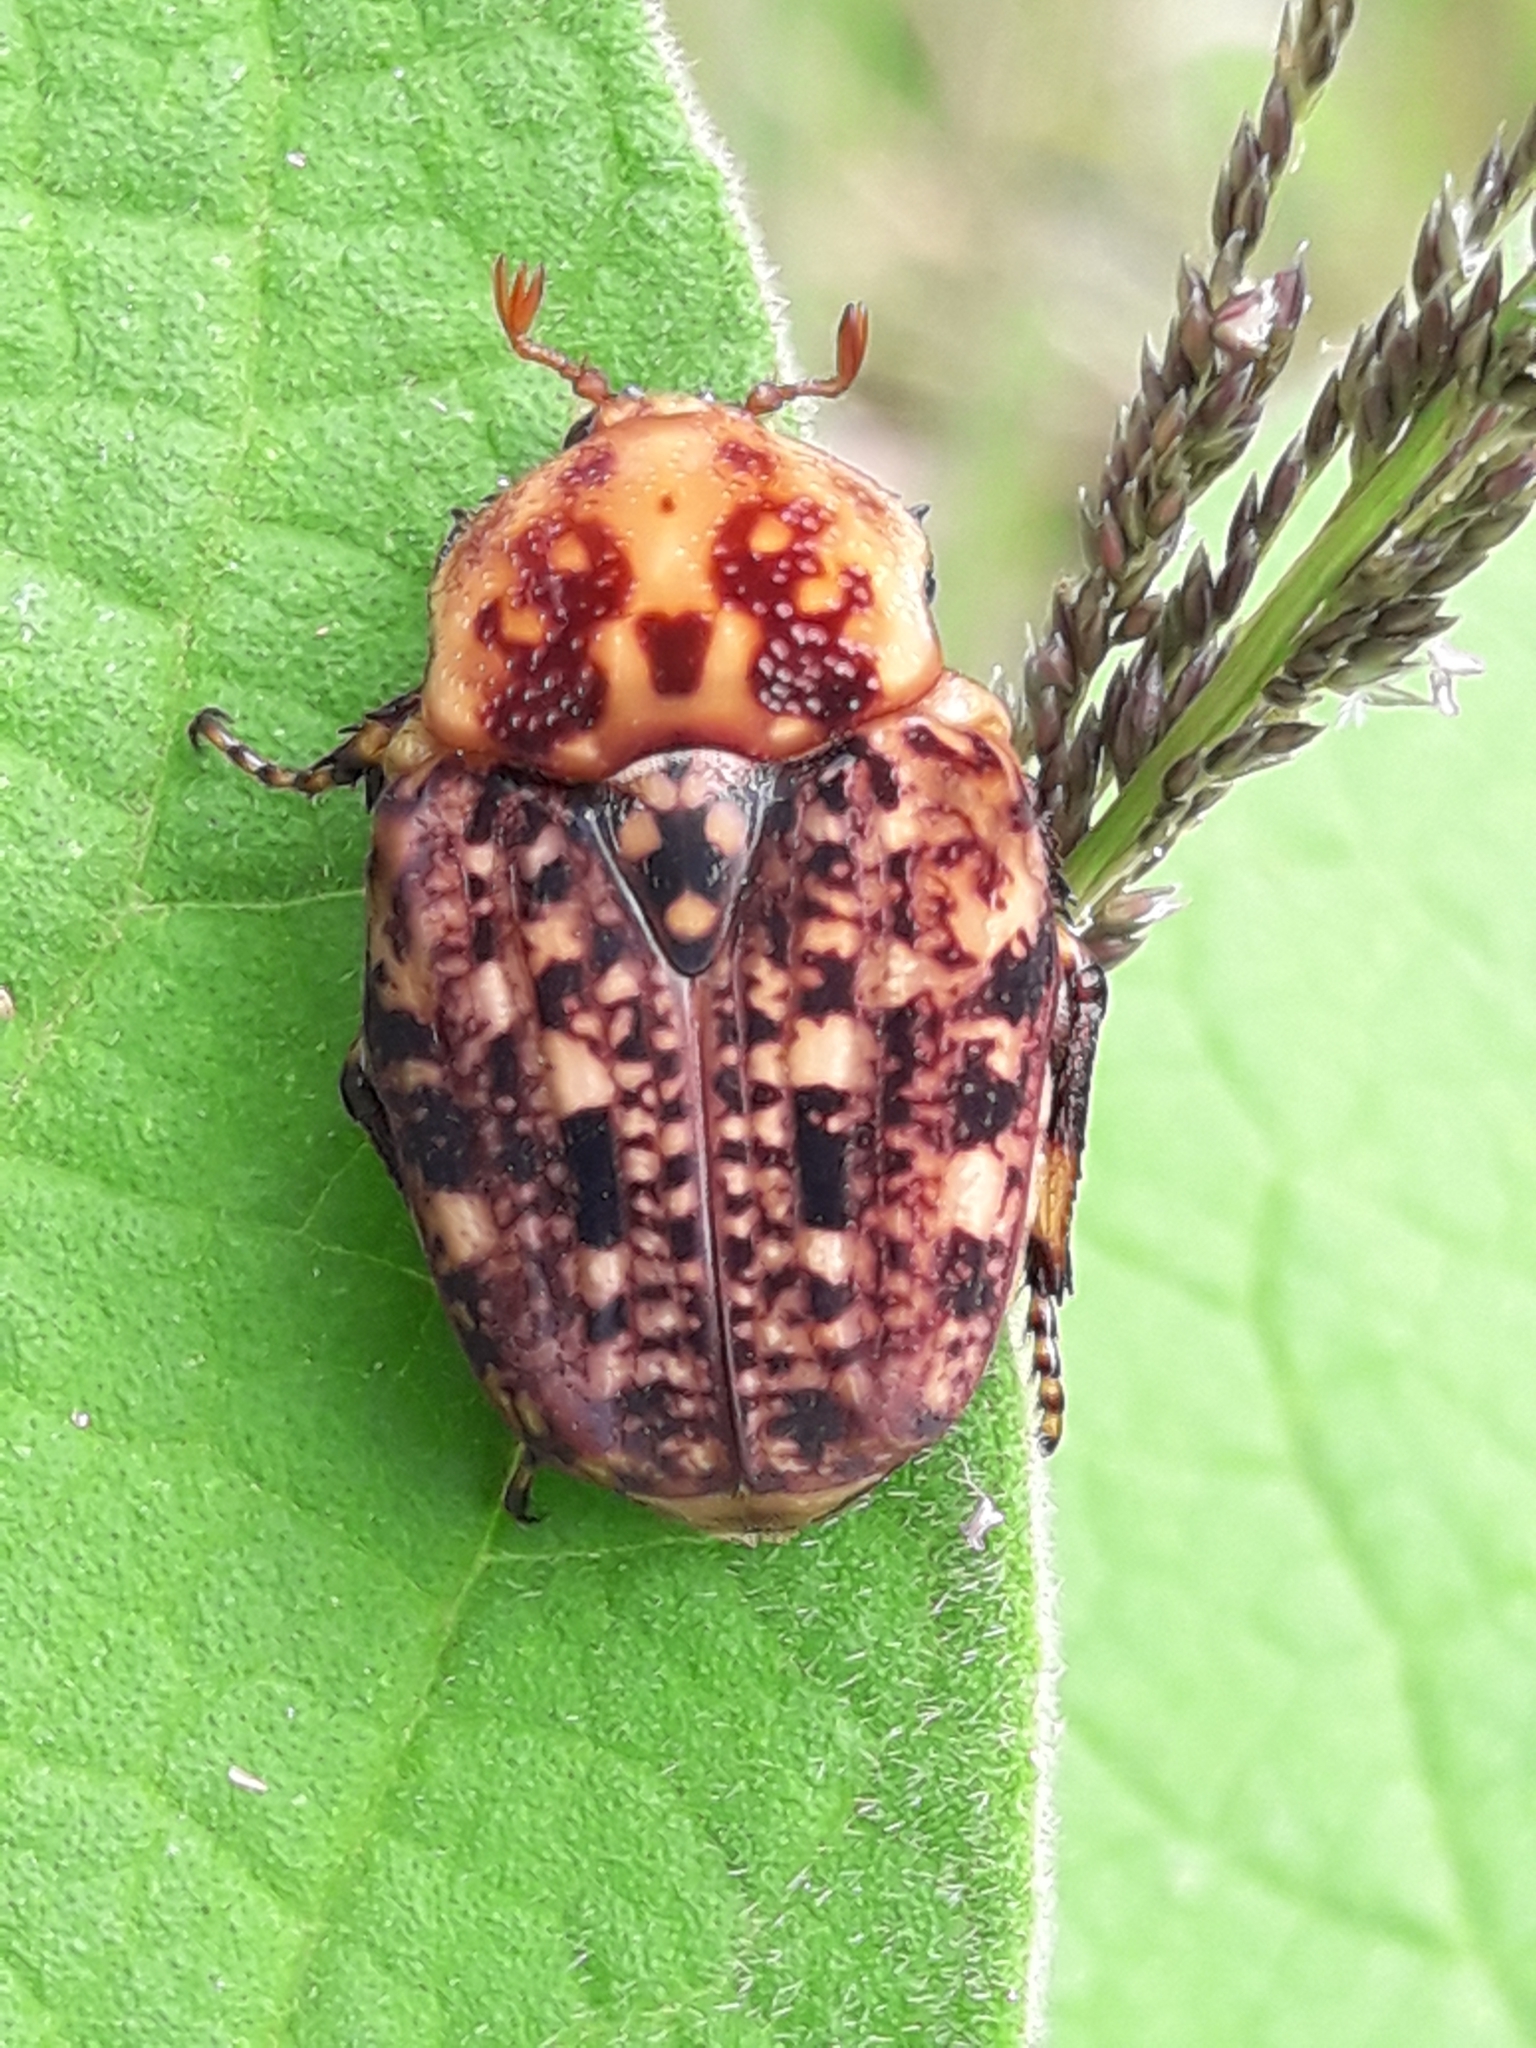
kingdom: Animalia
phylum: Arthropoda
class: Insecta
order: Coleoptera
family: Scarabaeidae
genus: Porphyronota
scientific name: Porphyronota hebraea
